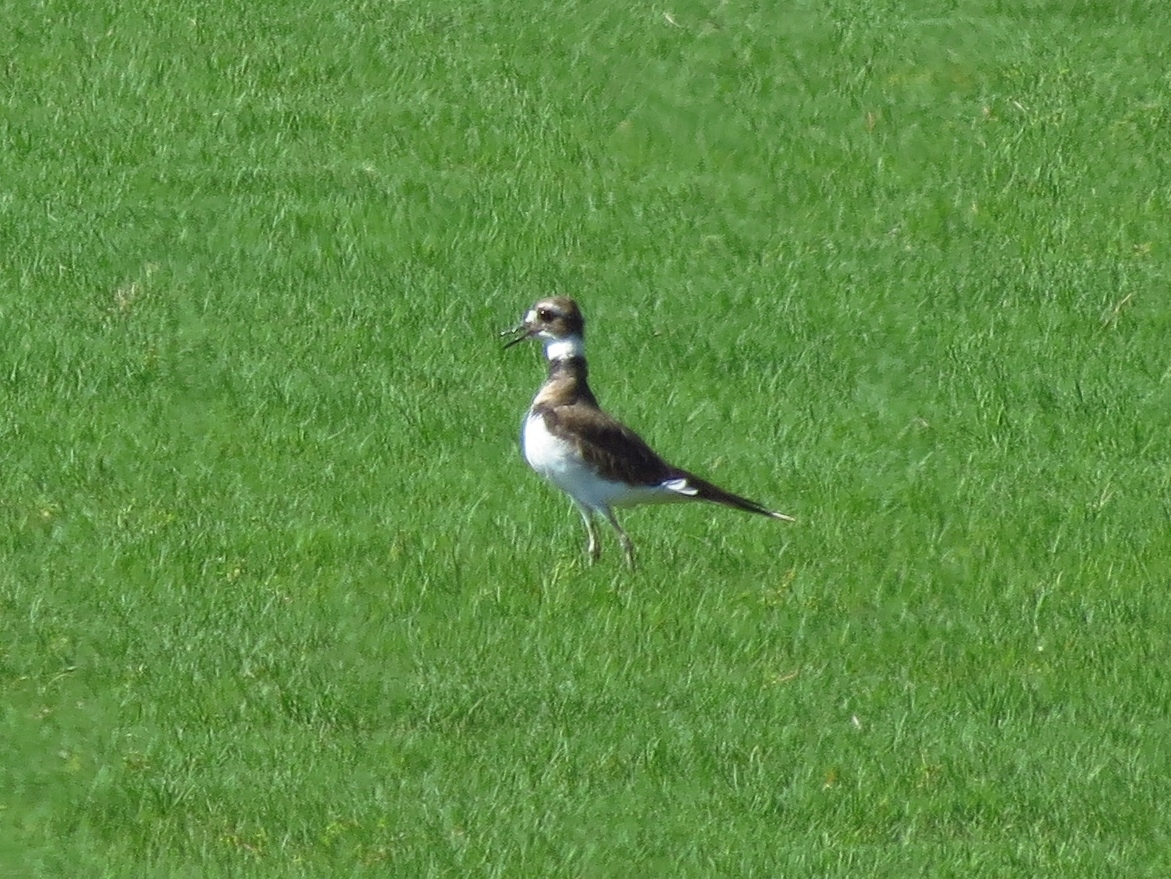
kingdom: Animalia
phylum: Chordata
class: Aves
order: Charadriiformes
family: Charadriidae
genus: Charadrius
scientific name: Charadrius vociferus
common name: Killdeer
